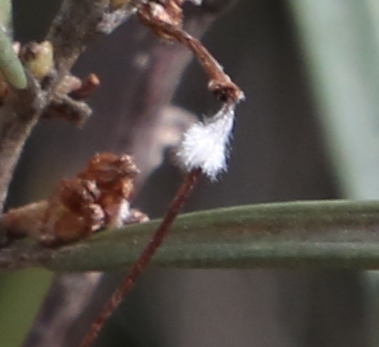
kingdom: Plantae
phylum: Tracheophyta
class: Magnoliopsida
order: Proteales
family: Proteaceae
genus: Grevillea
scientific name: Grevillea granulosa
